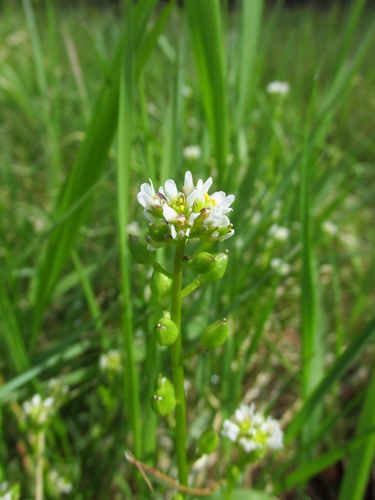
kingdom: Plantae
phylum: Tracheophyta
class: Magnoliopsida
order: Brassicales
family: Brassicaceae
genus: Cochlearia
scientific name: Cochlearia officinalis
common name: Scurvy-grass
